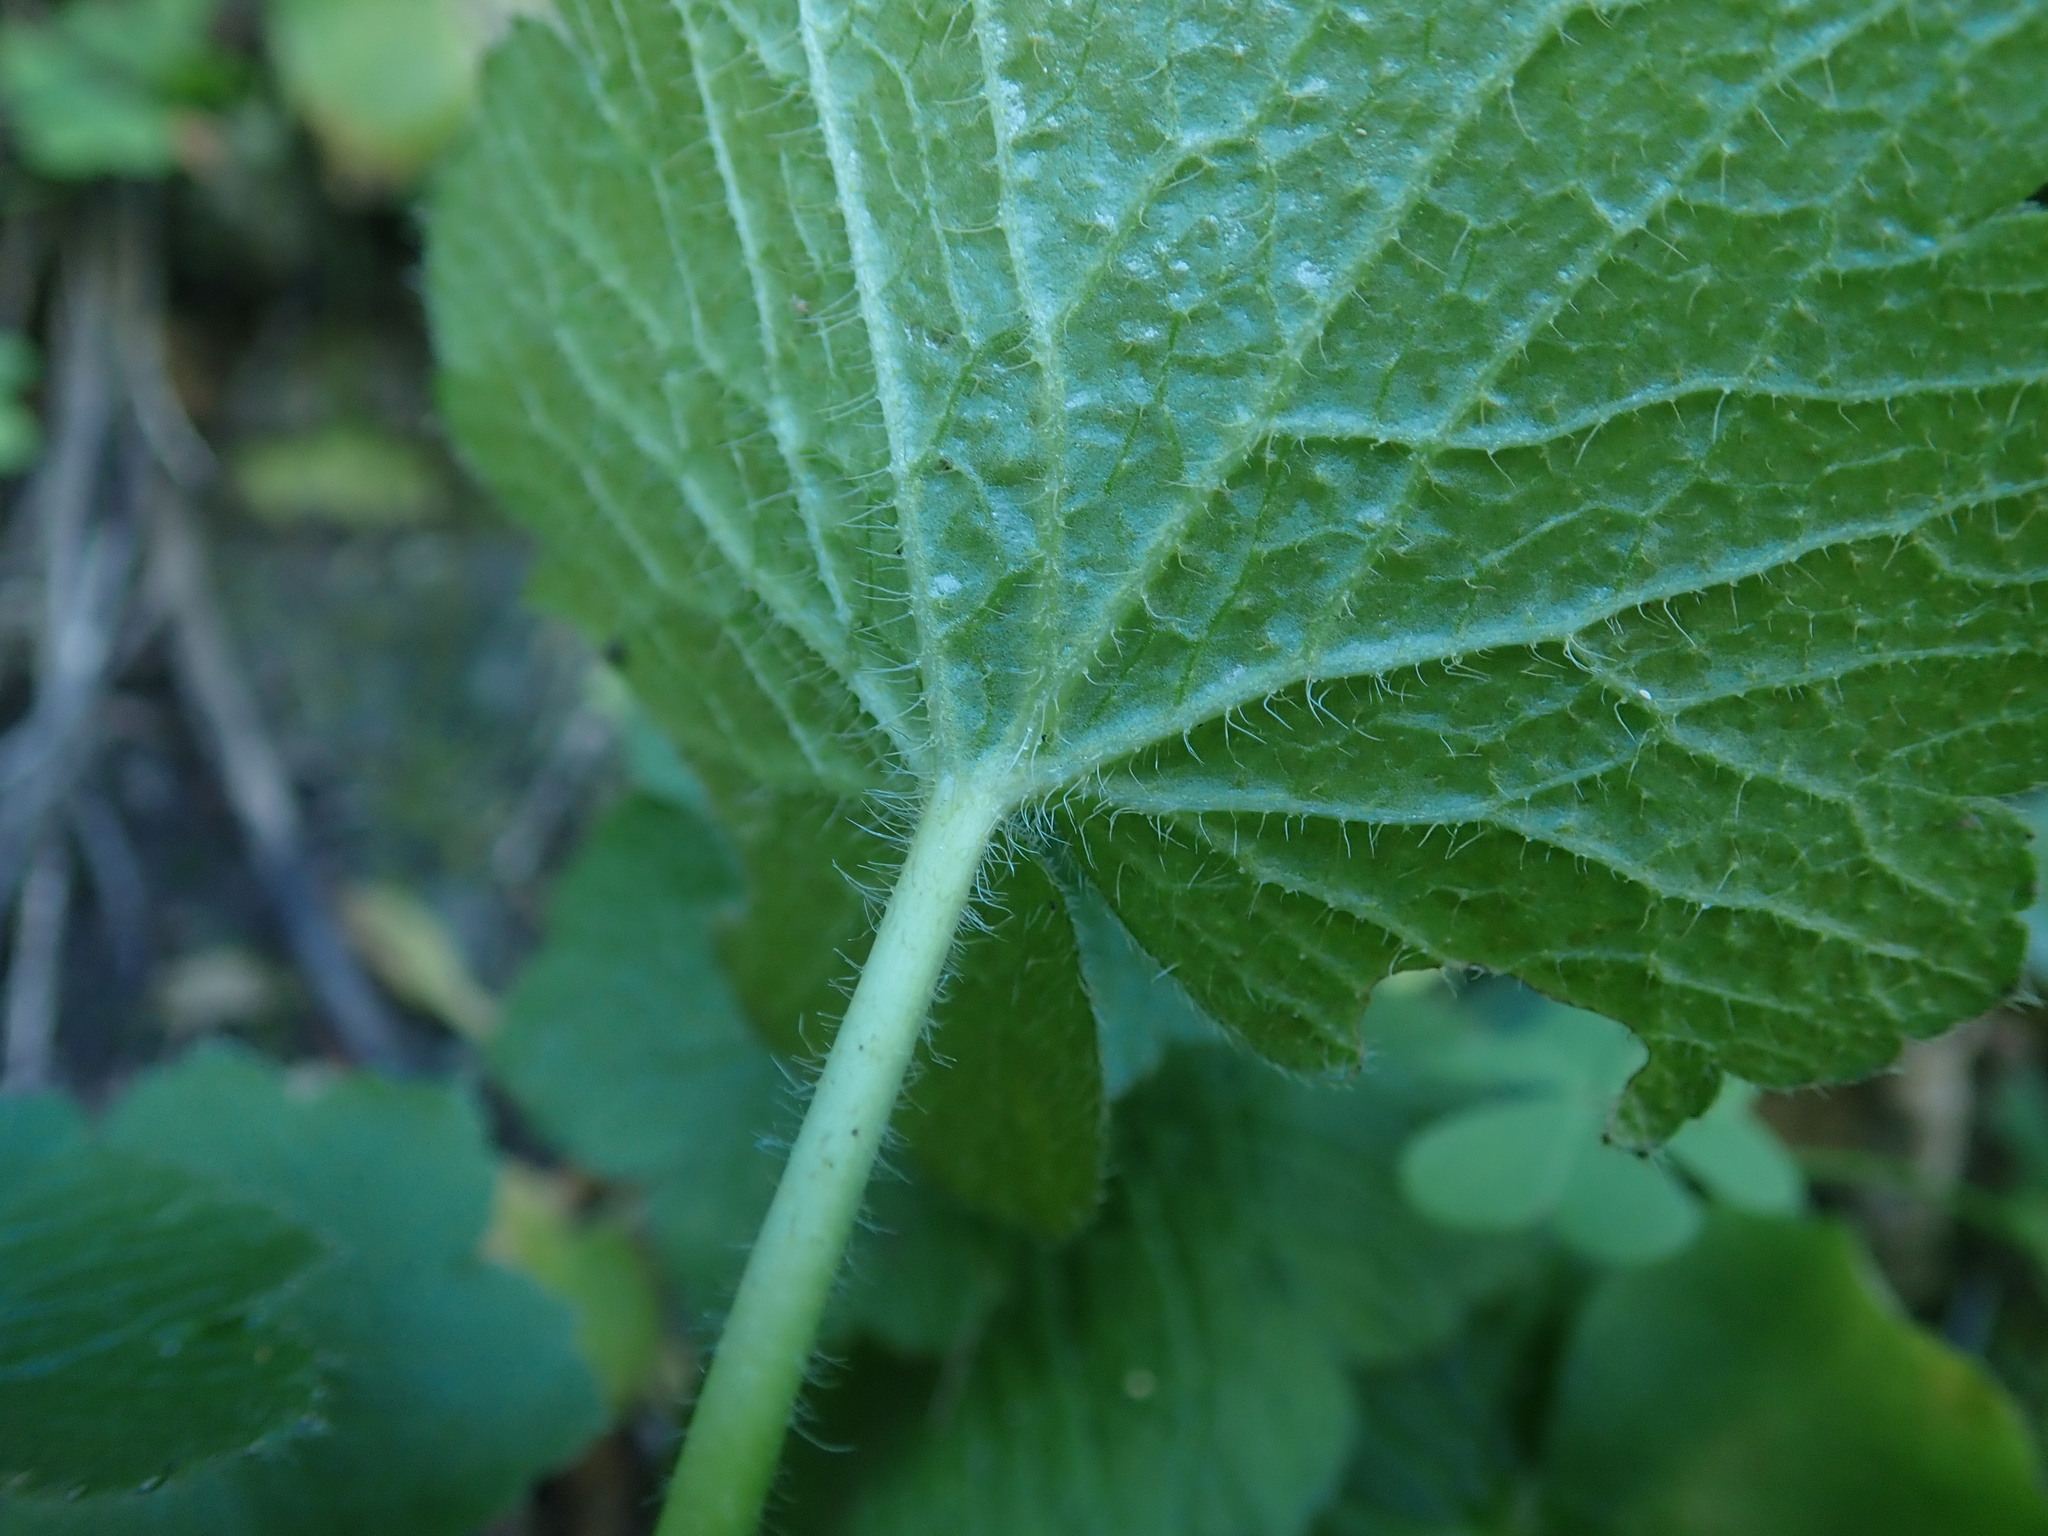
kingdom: Plantae
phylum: Tracheophyta
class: Magnoliopsida
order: Ranunculales
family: Ranunculaceae
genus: Ranunculus
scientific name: Ranunculus cortusifolius
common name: Azores buttercup
